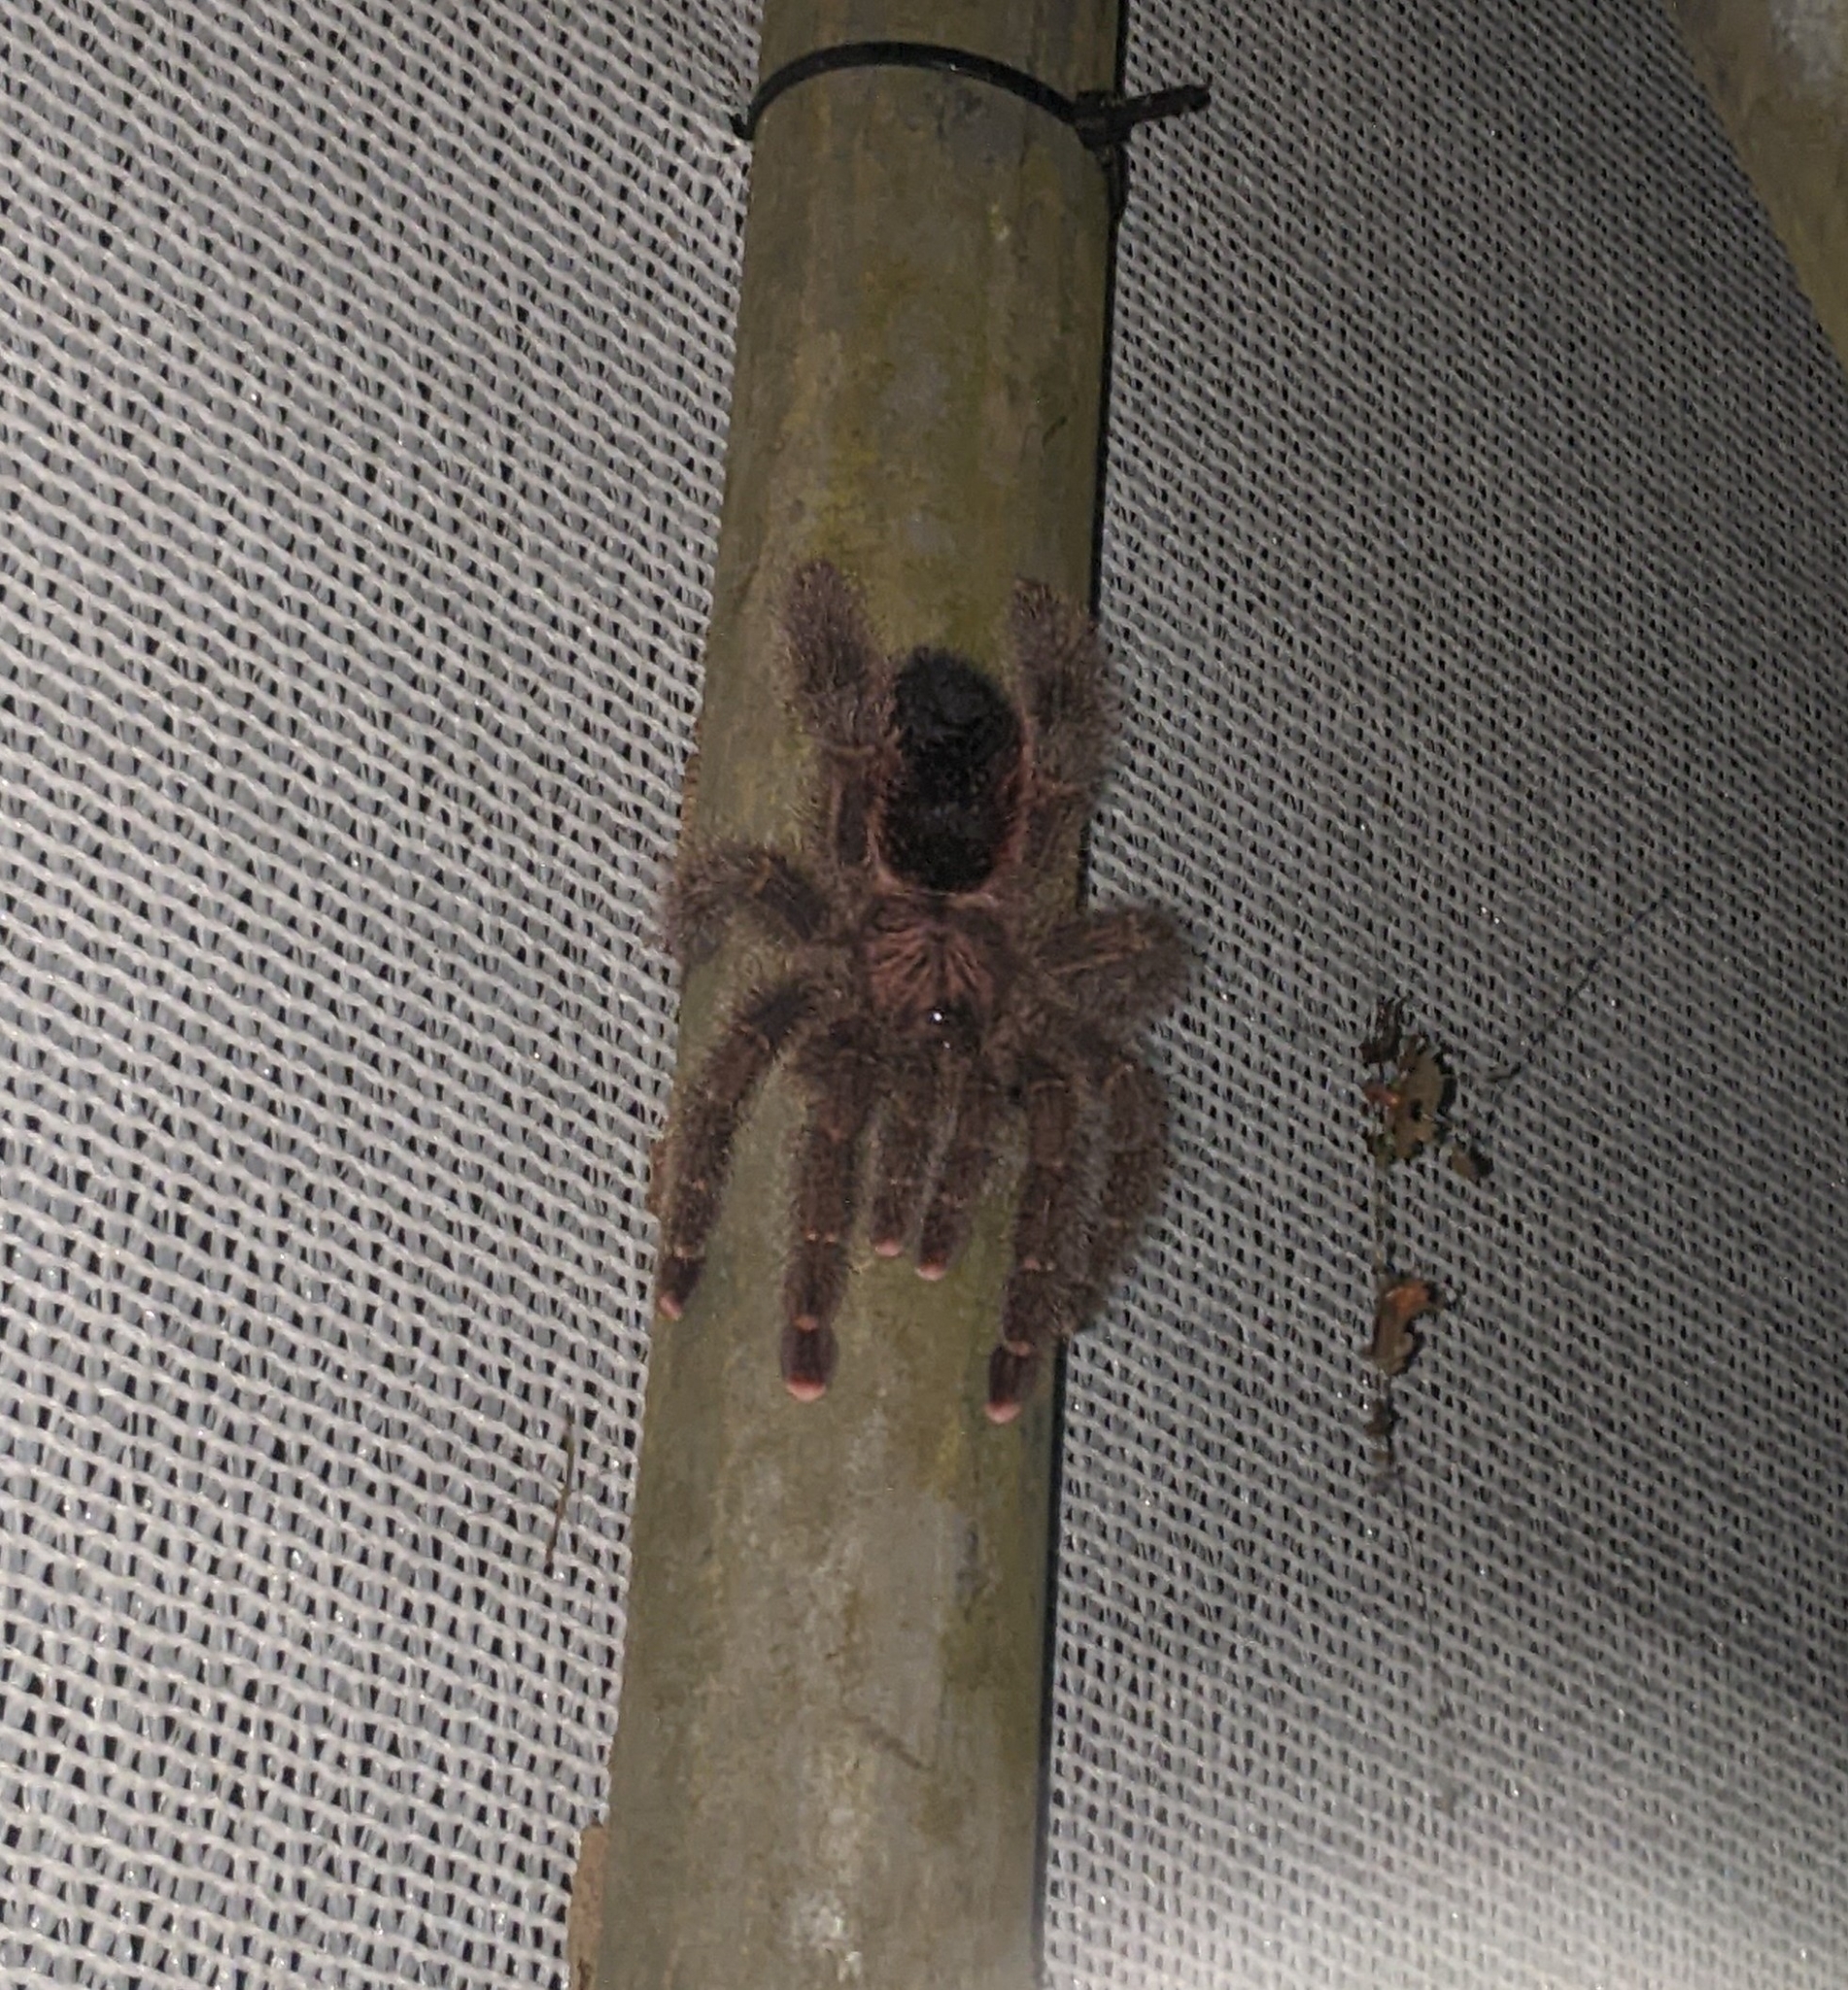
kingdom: Animalia
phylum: Arthropoda
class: Arachnida
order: Araneae
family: Theraphosidae
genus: Avicularia
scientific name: Avicularia juruensis
